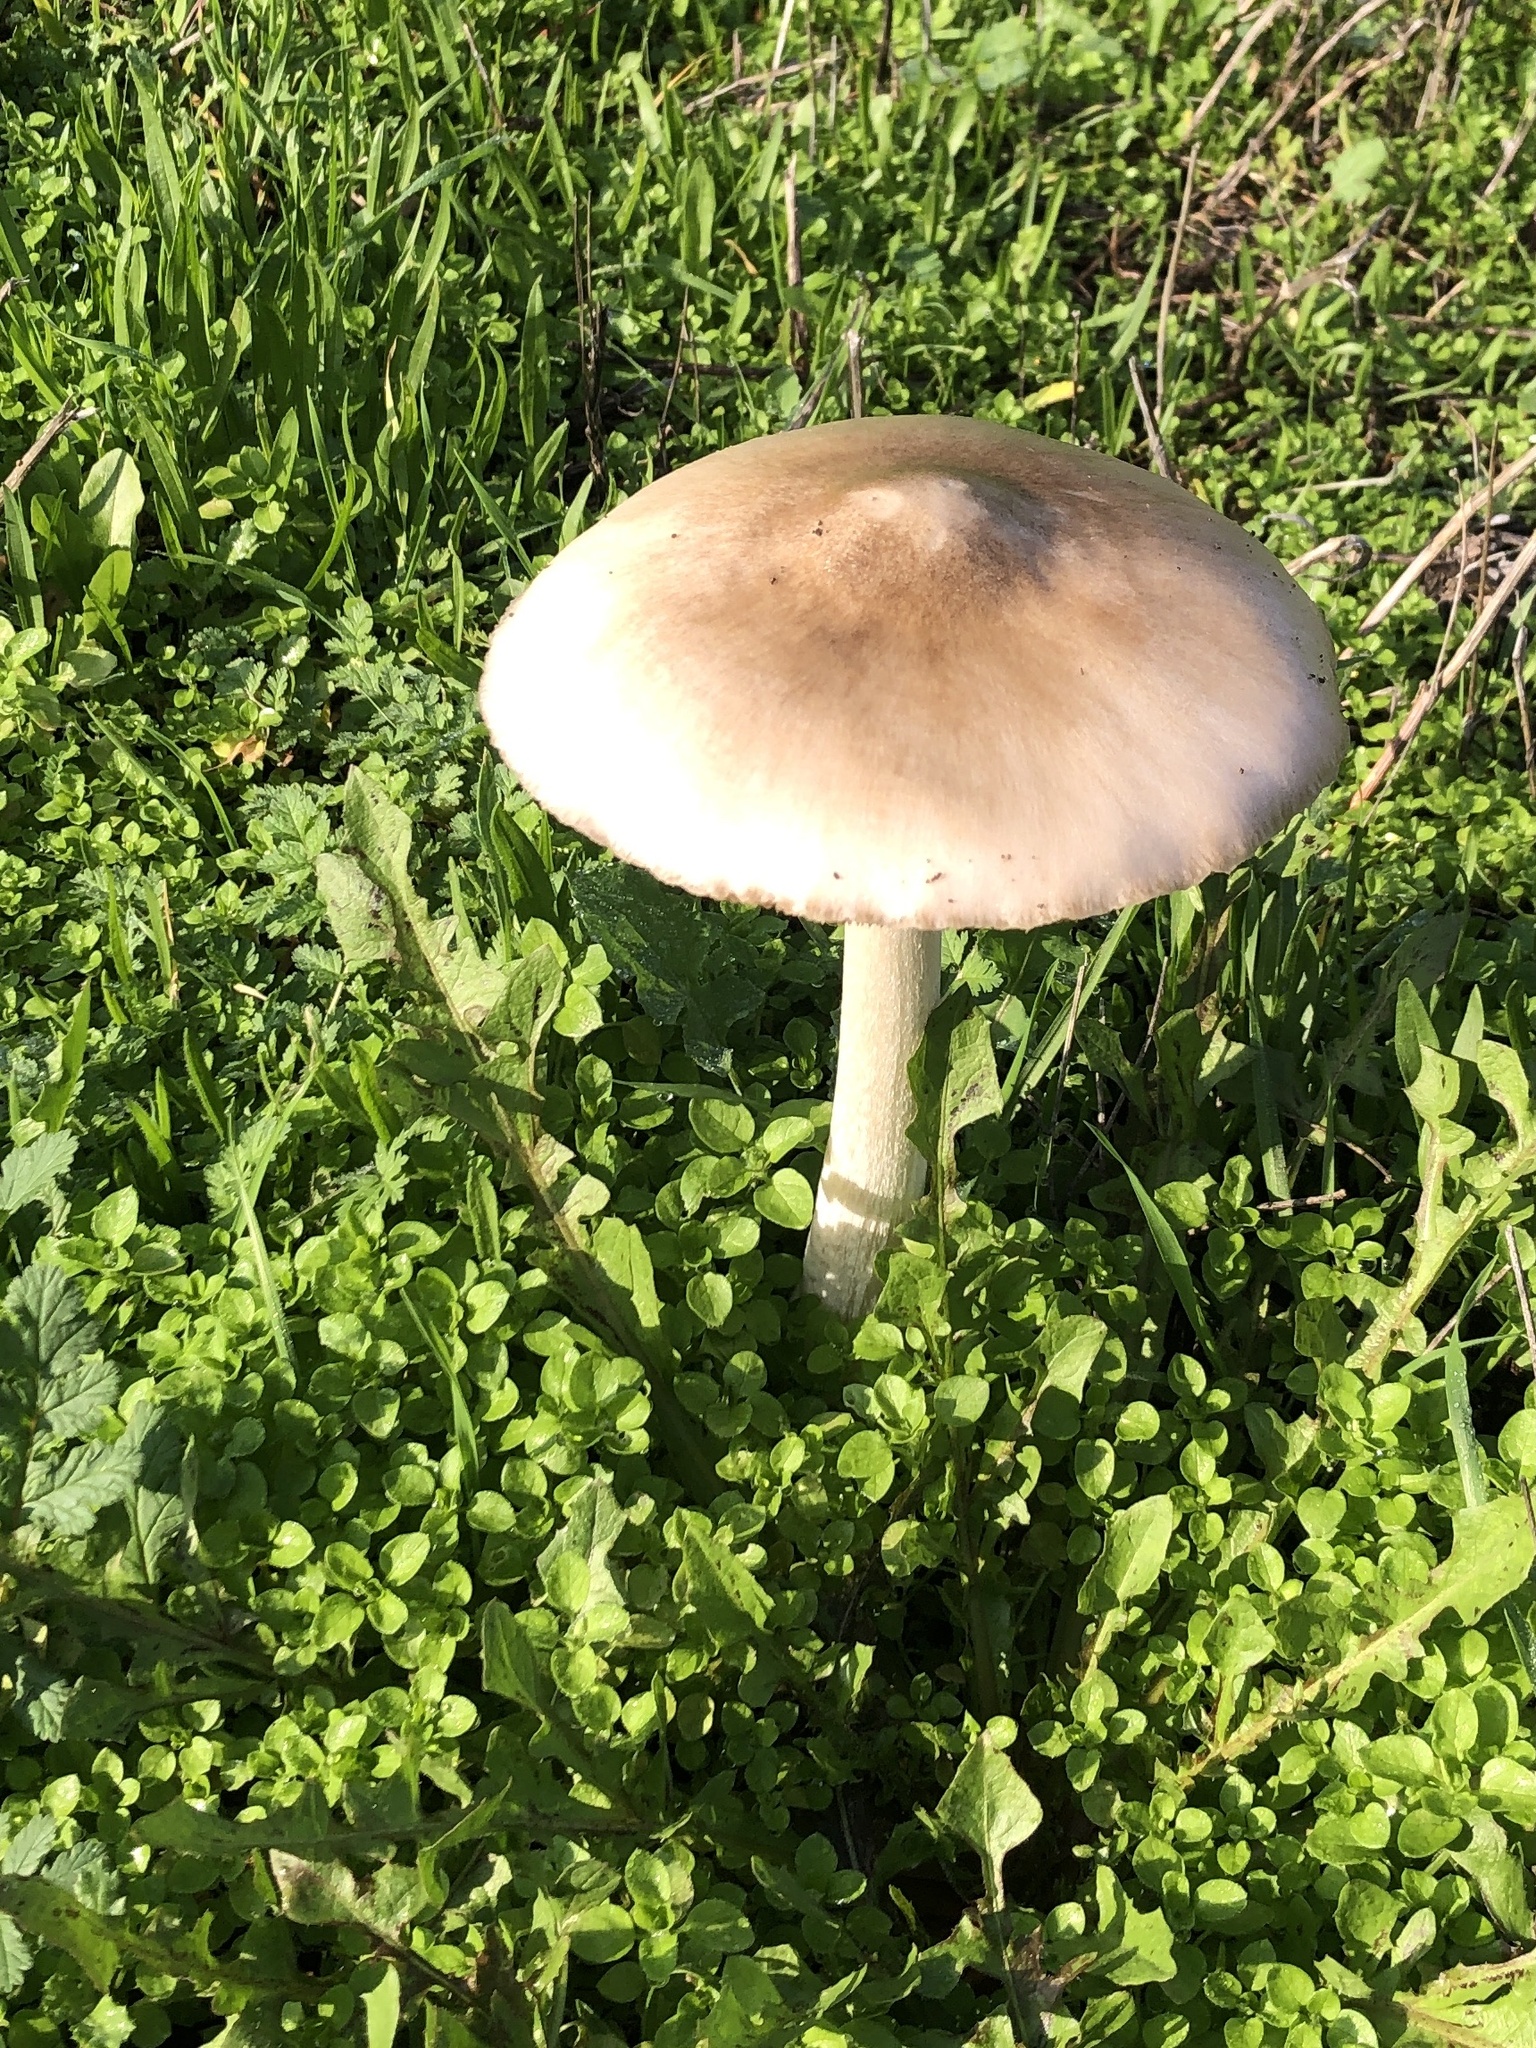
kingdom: Fungi
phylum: Basidiomycota
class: Agaricomycetes
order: Agaricales
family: Pluteaceae
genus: Volvopluteus
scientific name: Volvopluteus gloiocephalus
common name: Stubble rosegill
